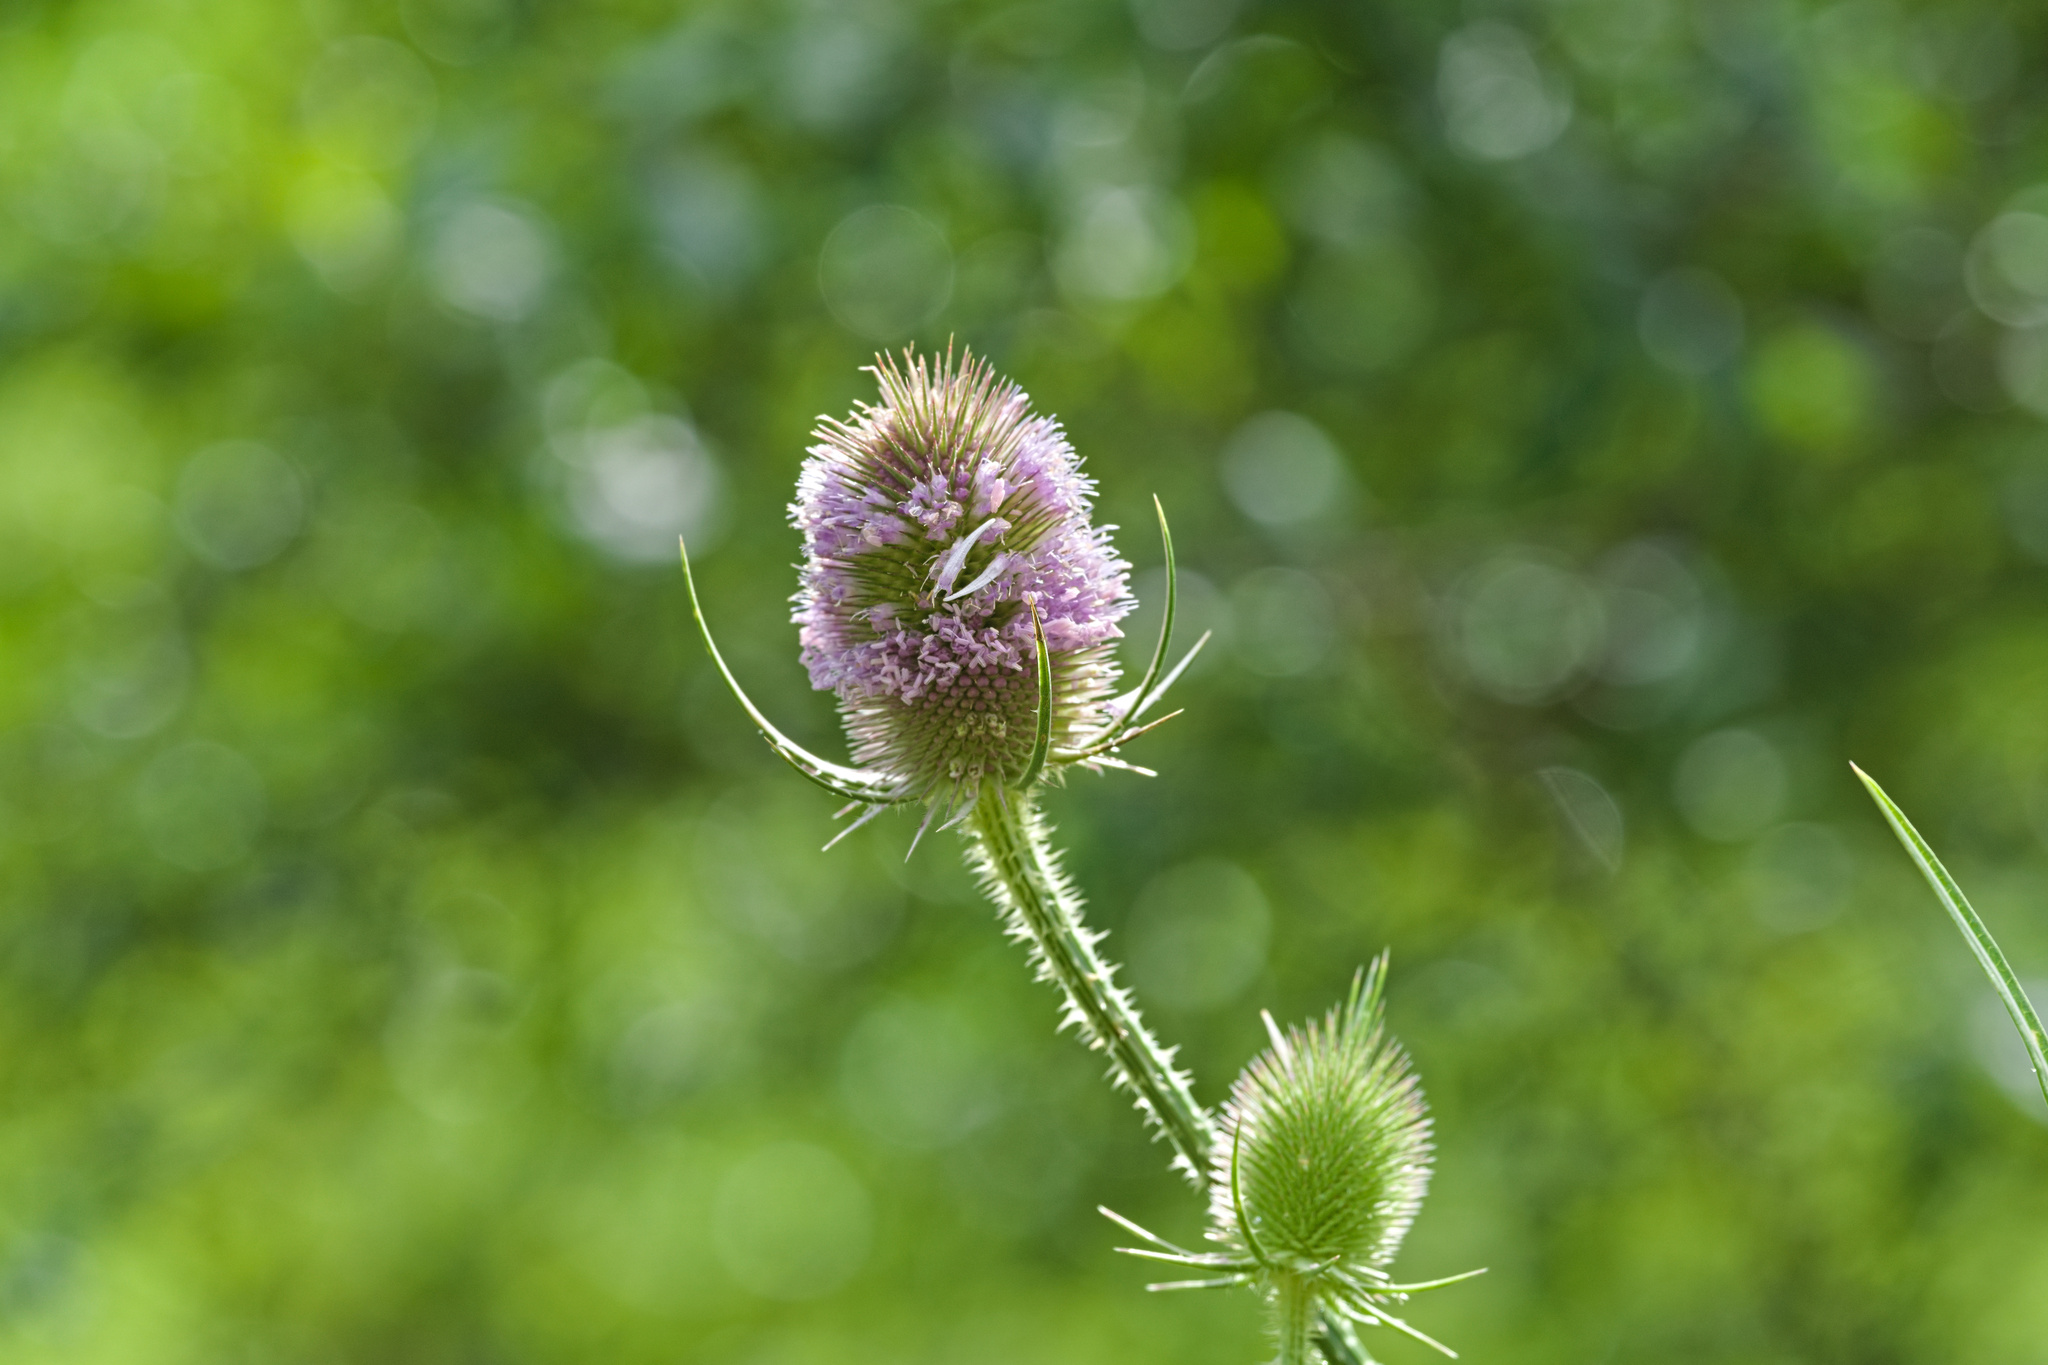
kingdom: Plantae
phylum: Tracheophyta
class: Magnoliopsida
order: Dipsacales
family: Caprifoliaceae
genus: Dipsacus
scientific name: Dipsacus fullonum
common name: Teasel
